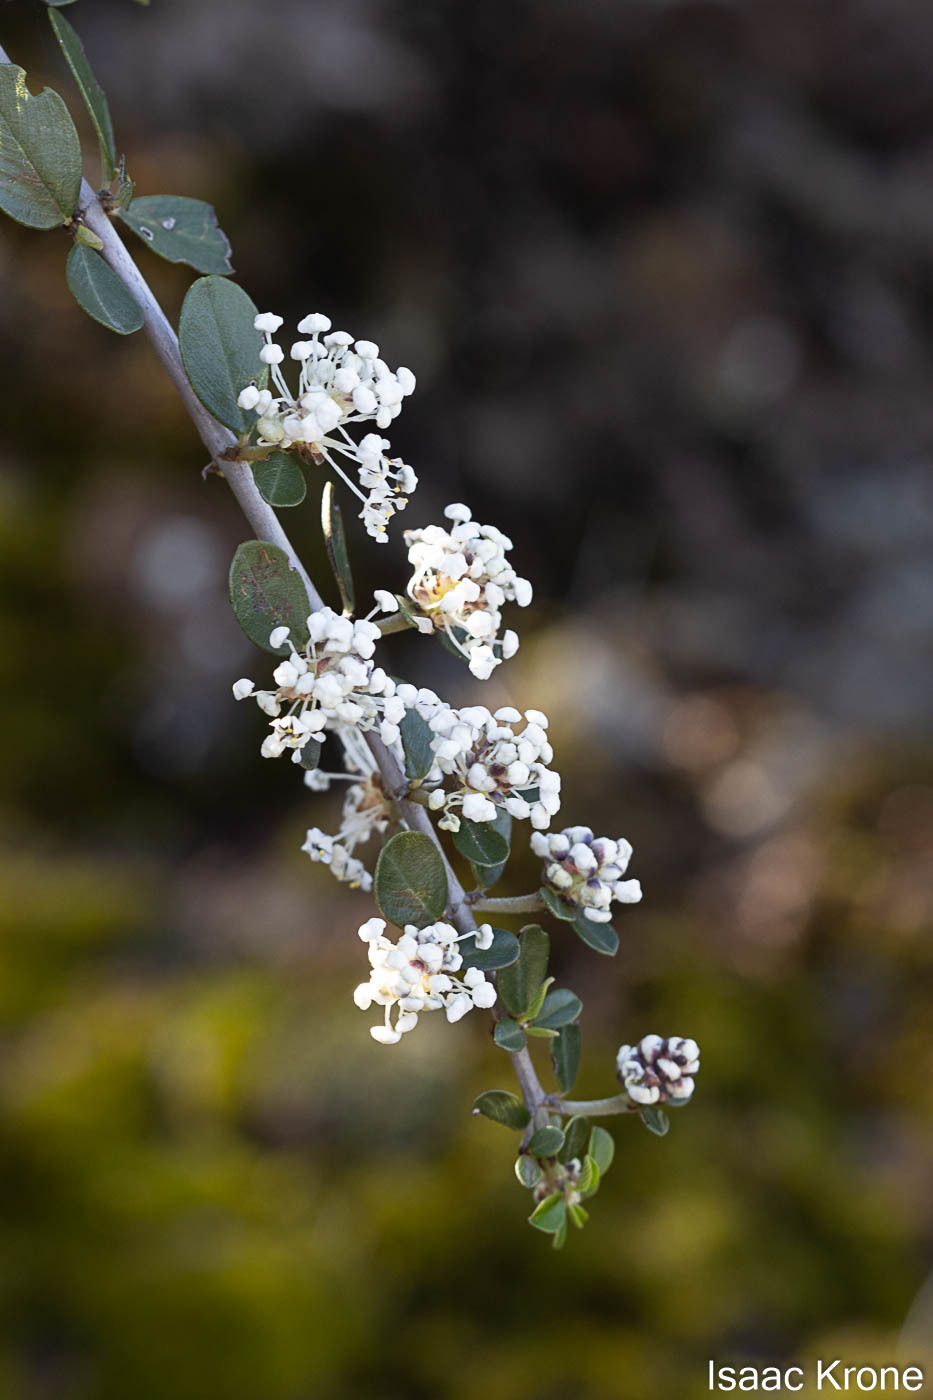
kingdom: Plantae
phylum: Tracheophyta
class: Magnoliopsida
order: Rosales
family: Rhamnaceae
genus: Ceanothus
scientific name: Ceanothus cuneatus
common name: Cuneate ceanothus
